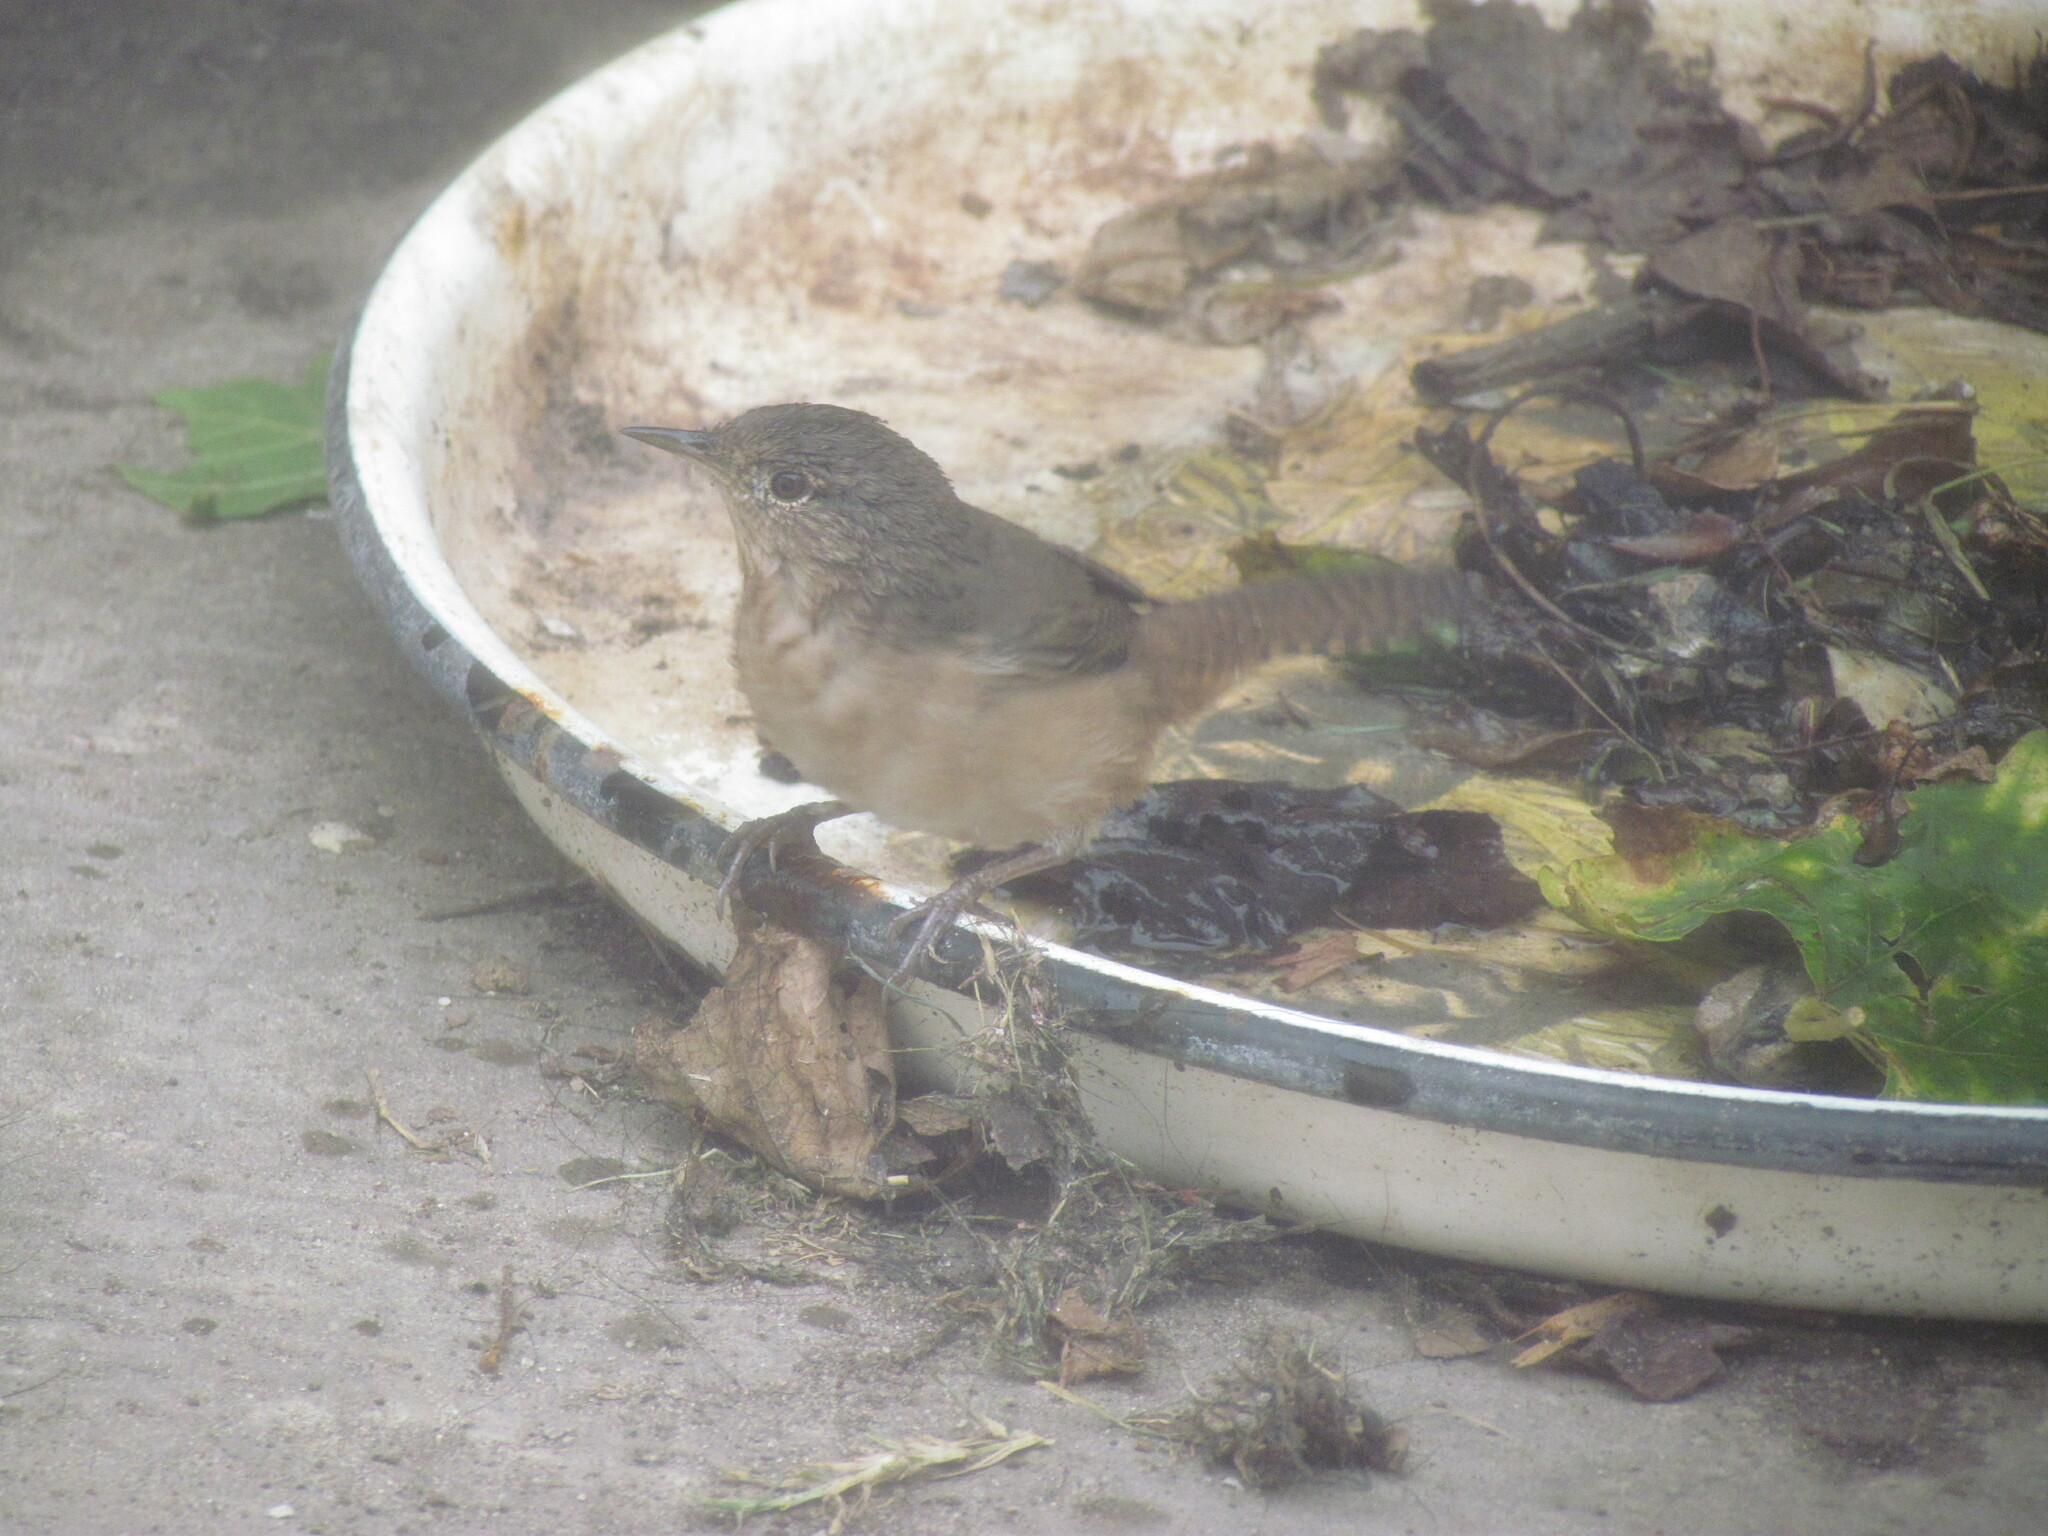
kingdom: Animalia
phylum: Chordata
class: Aves
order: Passeriformes
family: Troglodytidae
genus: Troglodytes
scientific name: Troglodytes aedon
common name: House wren
